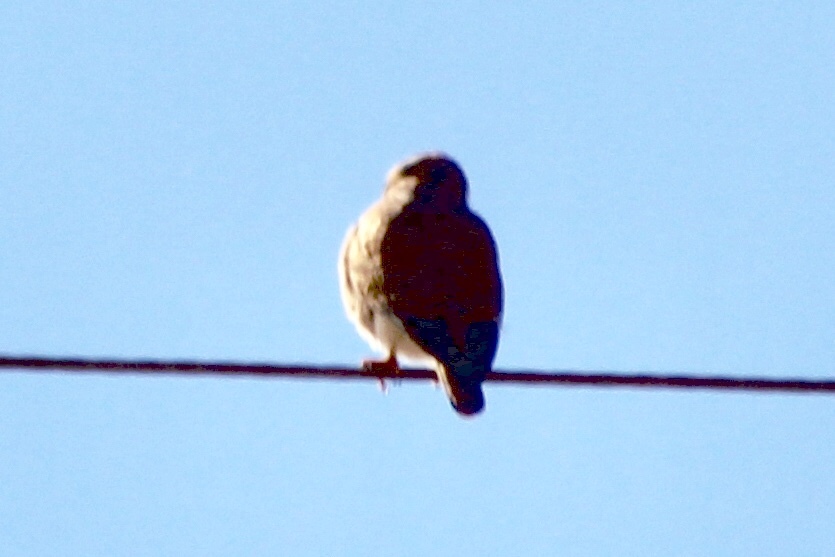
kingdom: Animalia
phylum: Chordata
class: Aves
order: Falconiformes
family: Falconidae
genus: Falco
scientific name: Falco sparverius
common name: American kestrel
